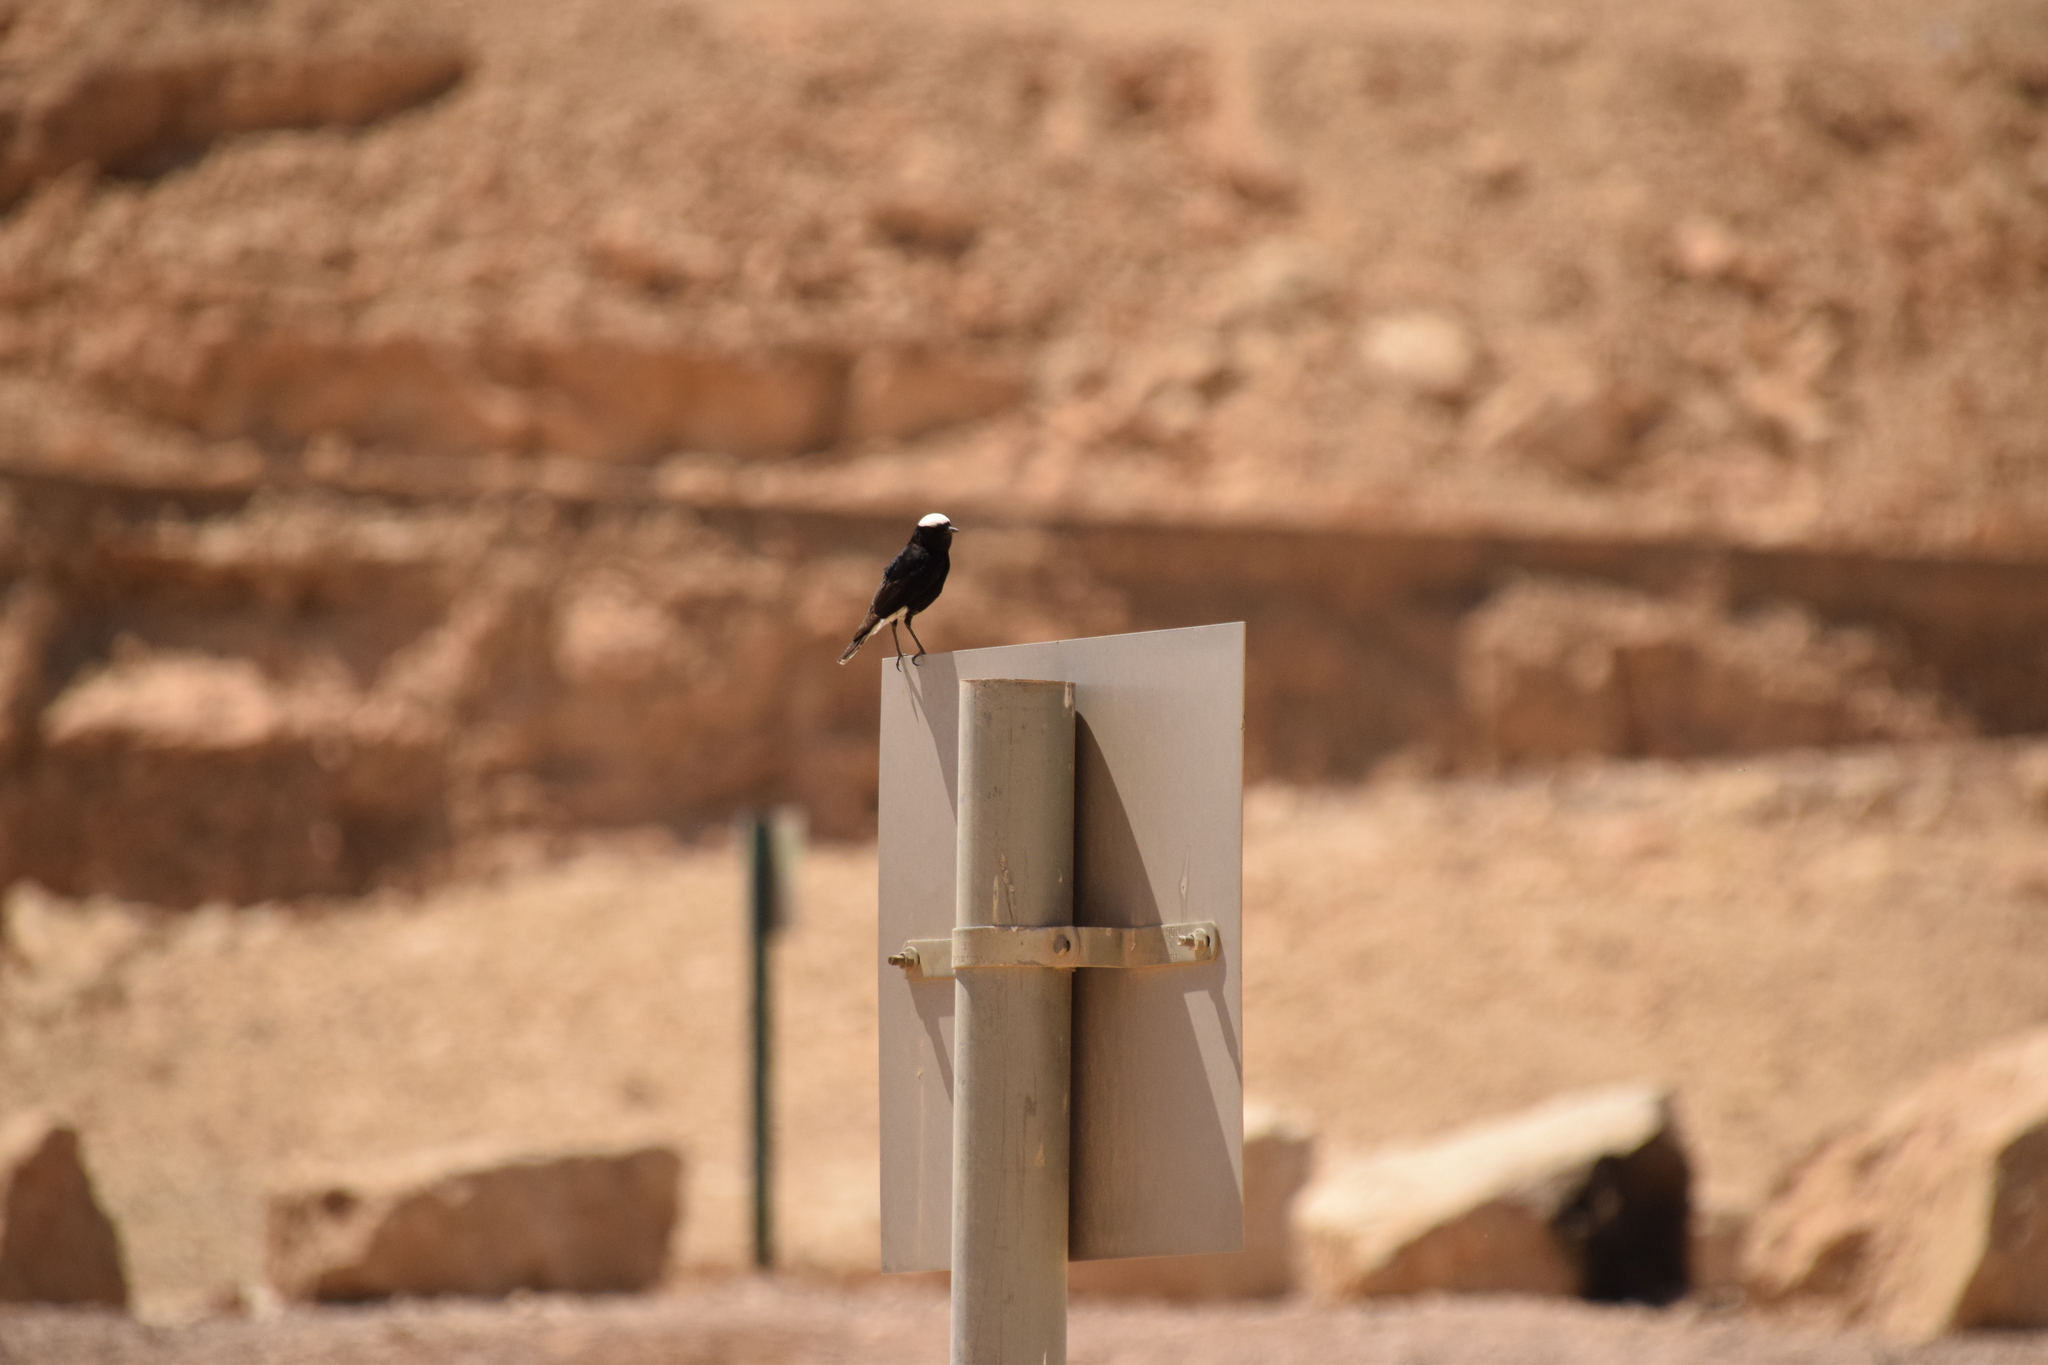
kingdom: Animalia
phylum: Chordata
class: Aves
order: Passeriformes
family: Muscicapidae
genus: Oenanthe
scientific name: Oenanthe leucopyga
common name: White-crowned wheatear
